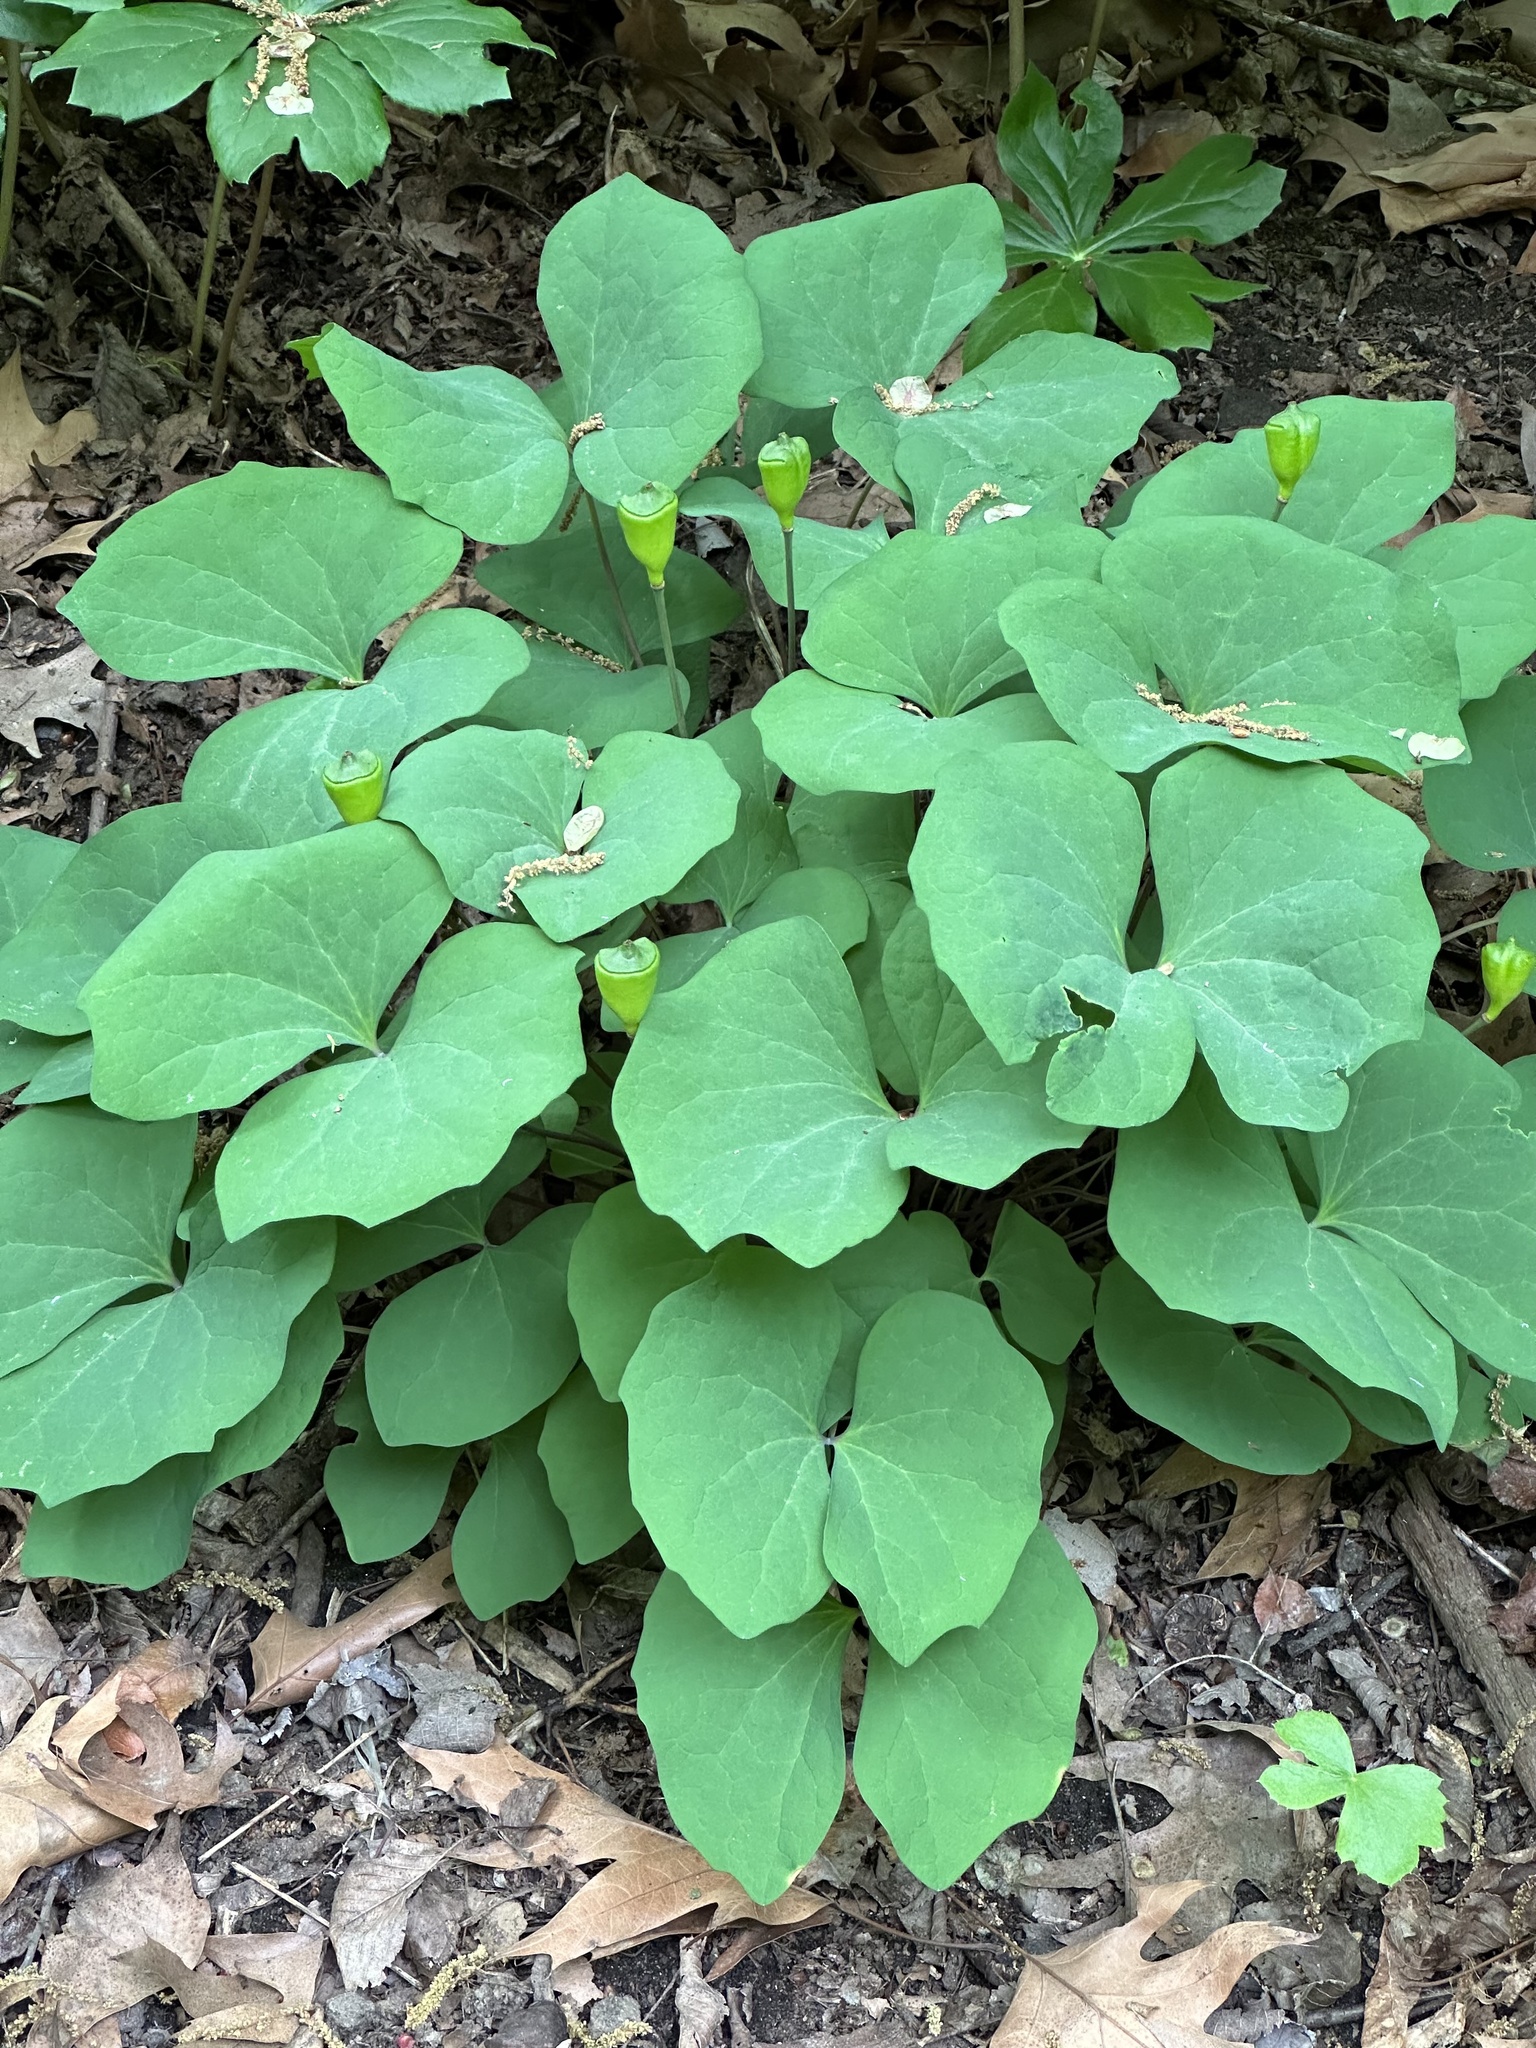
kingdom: Plantae
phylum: Tracheophyta
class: Magnoliopsida
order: Ranunculales
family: Berberidaceae
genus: Jeffersonia
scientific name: Jeffersonia diphylla
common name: Rheumatism-root
